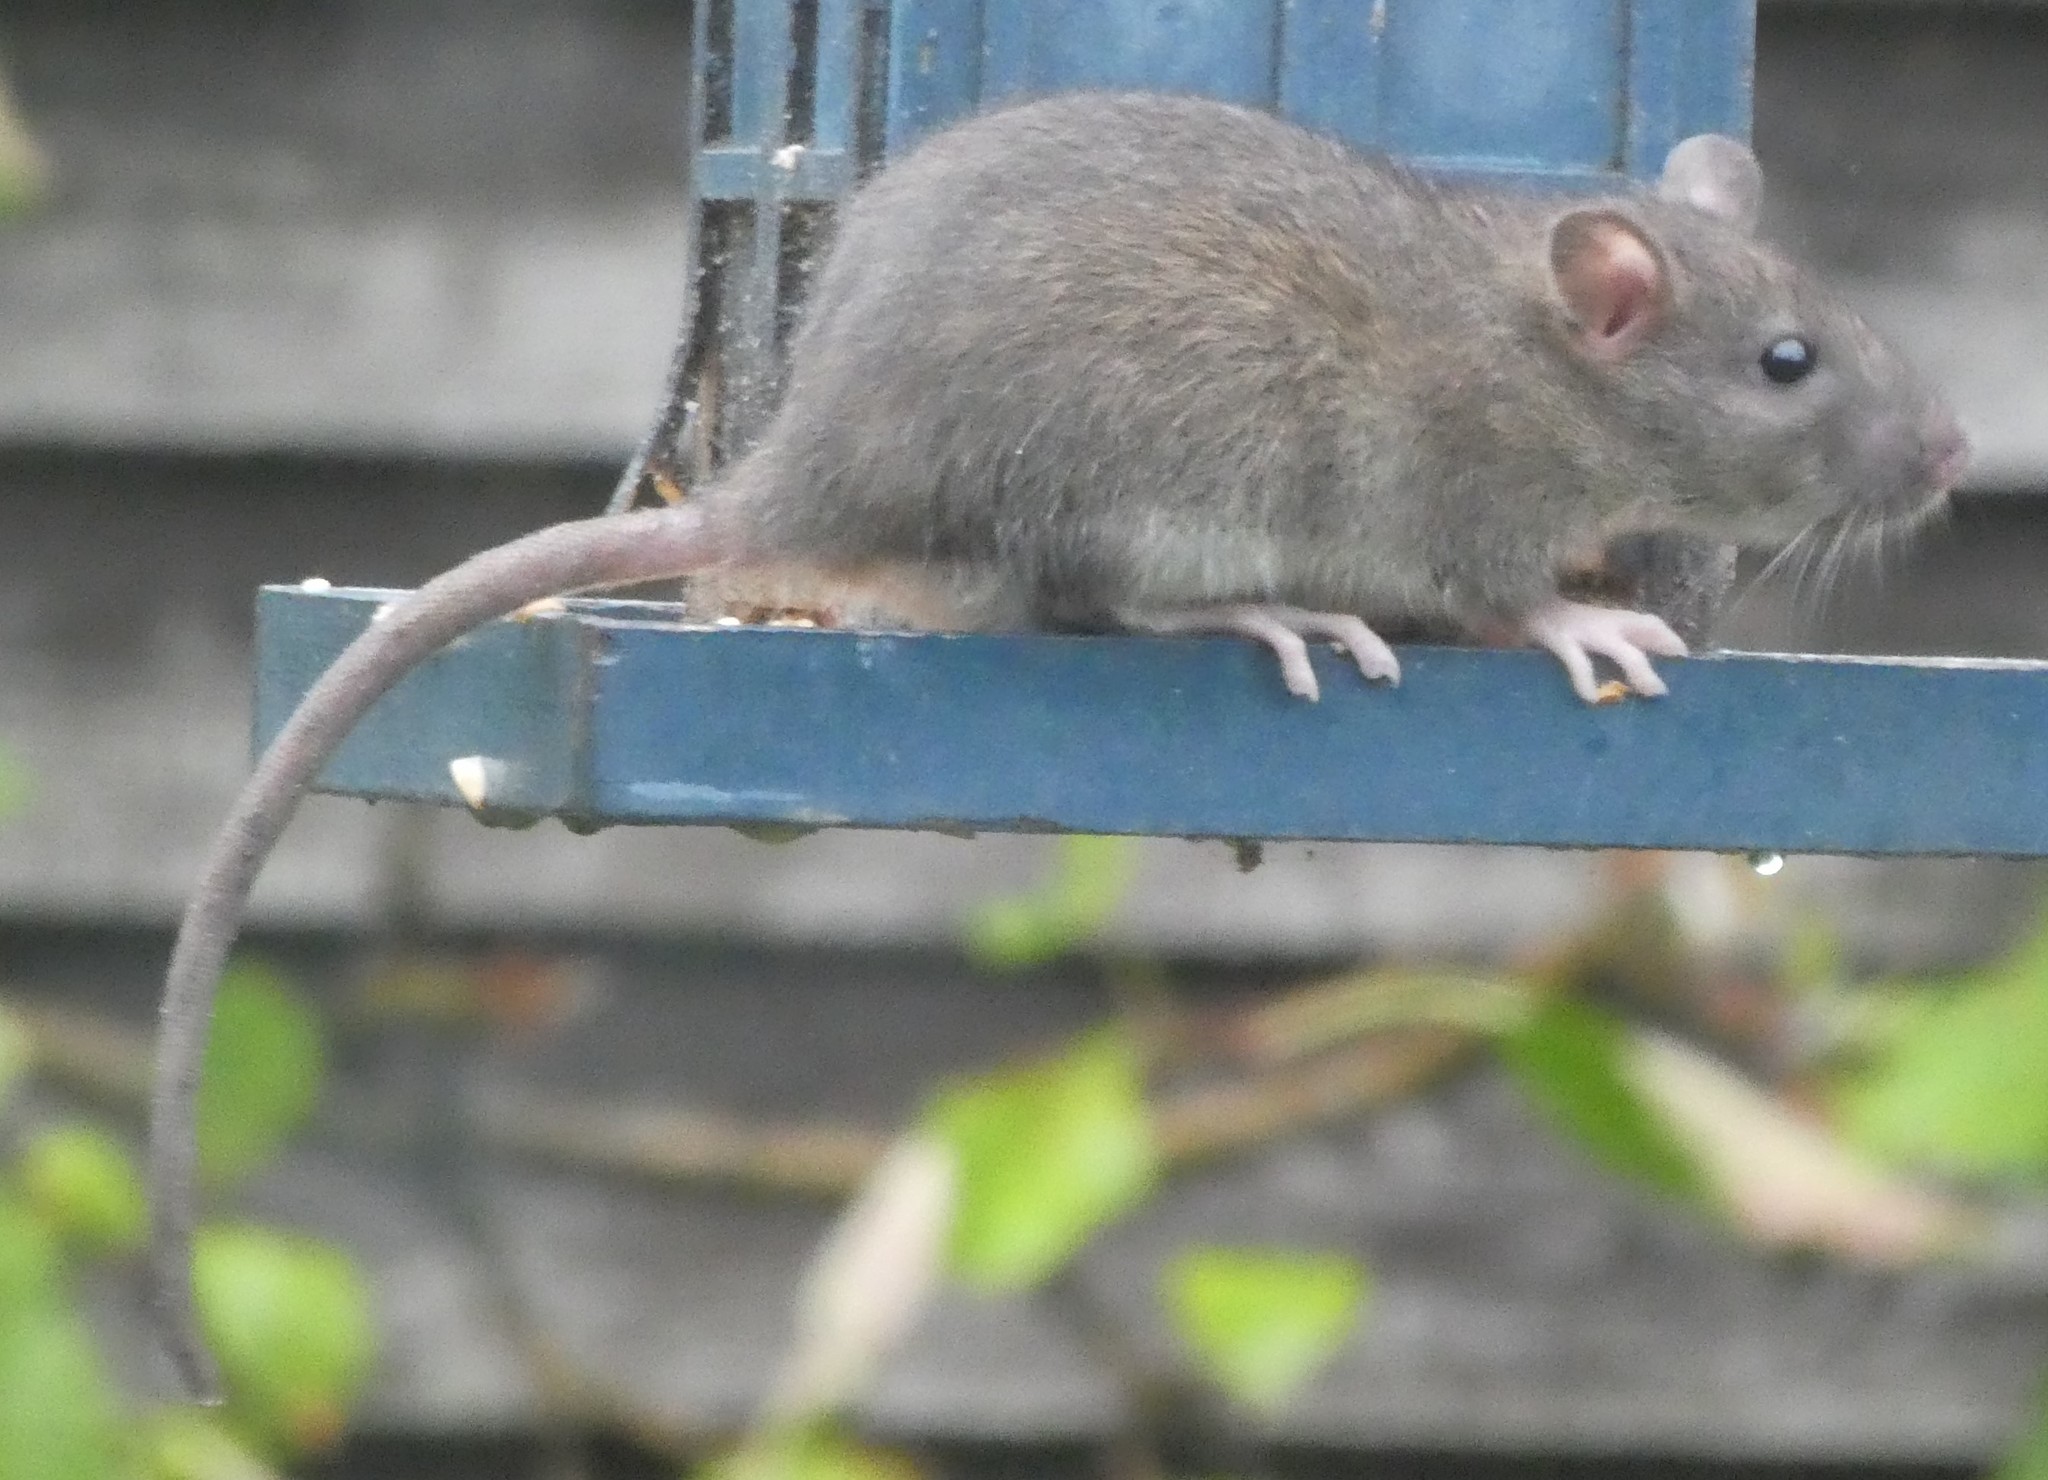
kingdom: Animalia
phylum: Chordata
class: Mammalia
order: Rodentia
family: Muridae
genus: Rattus
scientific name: Rattus norvegicus
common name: Brown rat
